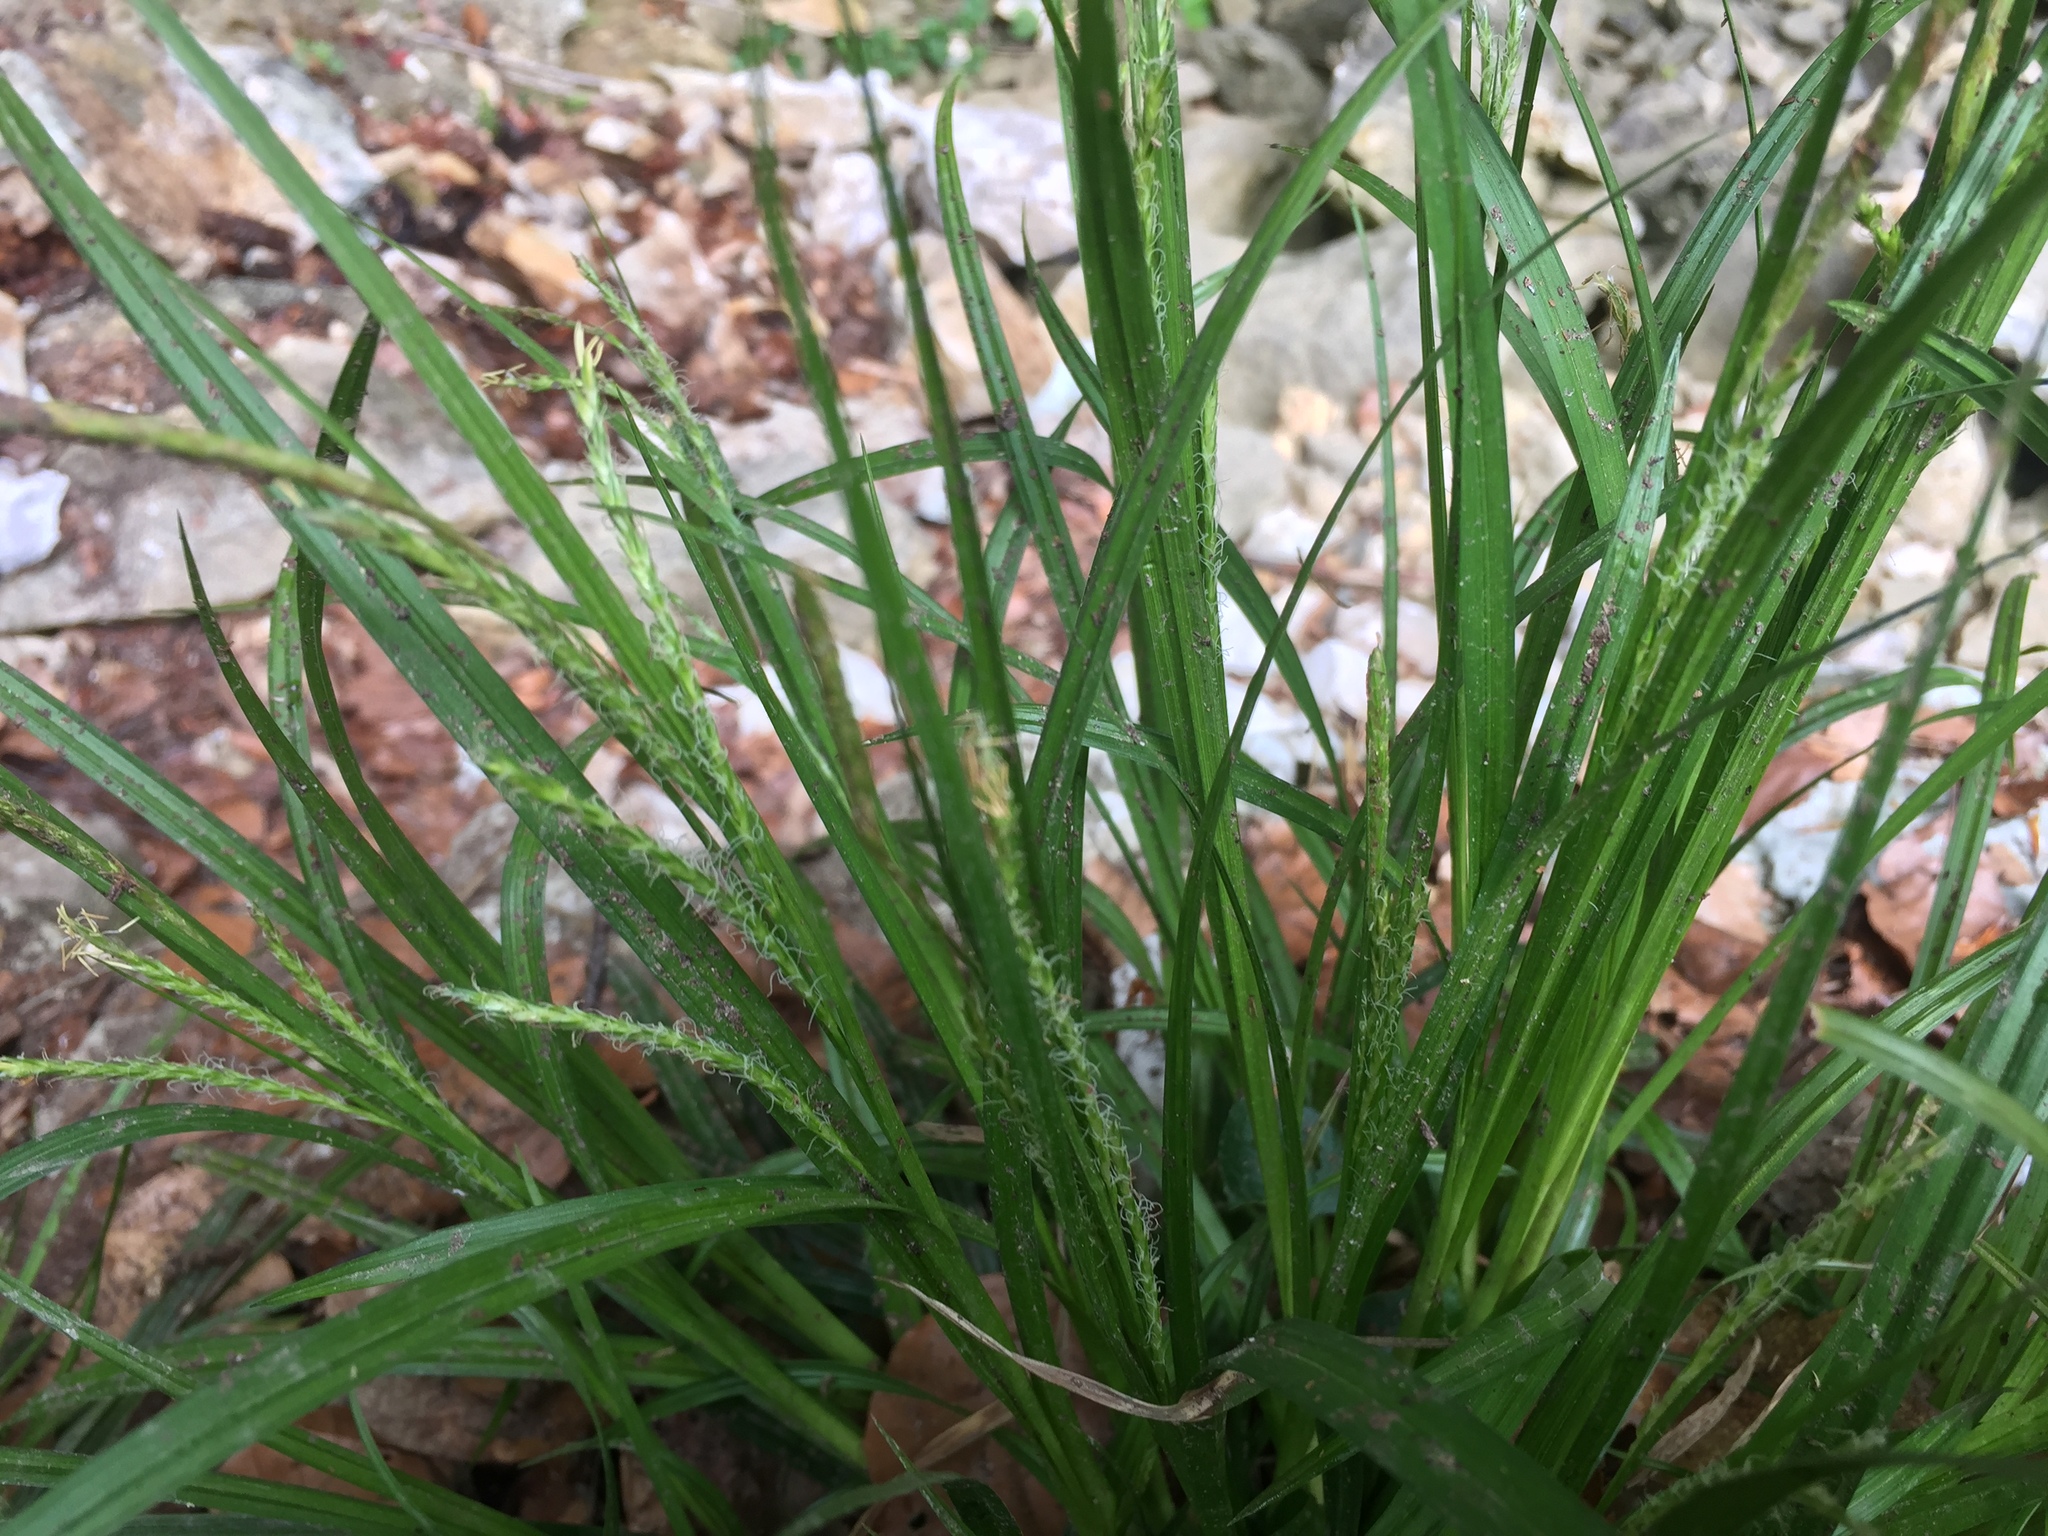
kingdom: Plantae
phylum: Tracheophyta
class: Liliopsida
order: Poales
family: Cyperaceae
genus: Carex
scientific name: Carex hirta
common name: Hairy sedge
